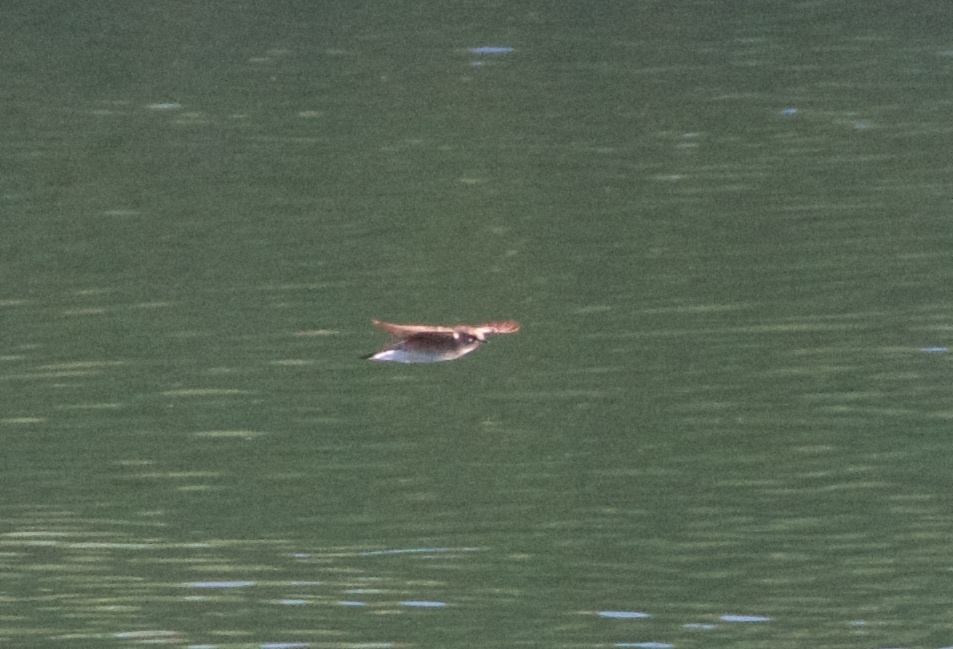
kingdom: Animalia
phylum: Chordata
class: Aves
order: Passeriformes
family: Hirundinidae
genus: Stelgidopteryx
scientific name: Stelgidopteryx serripennis
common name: Northern rough-winged swallow
